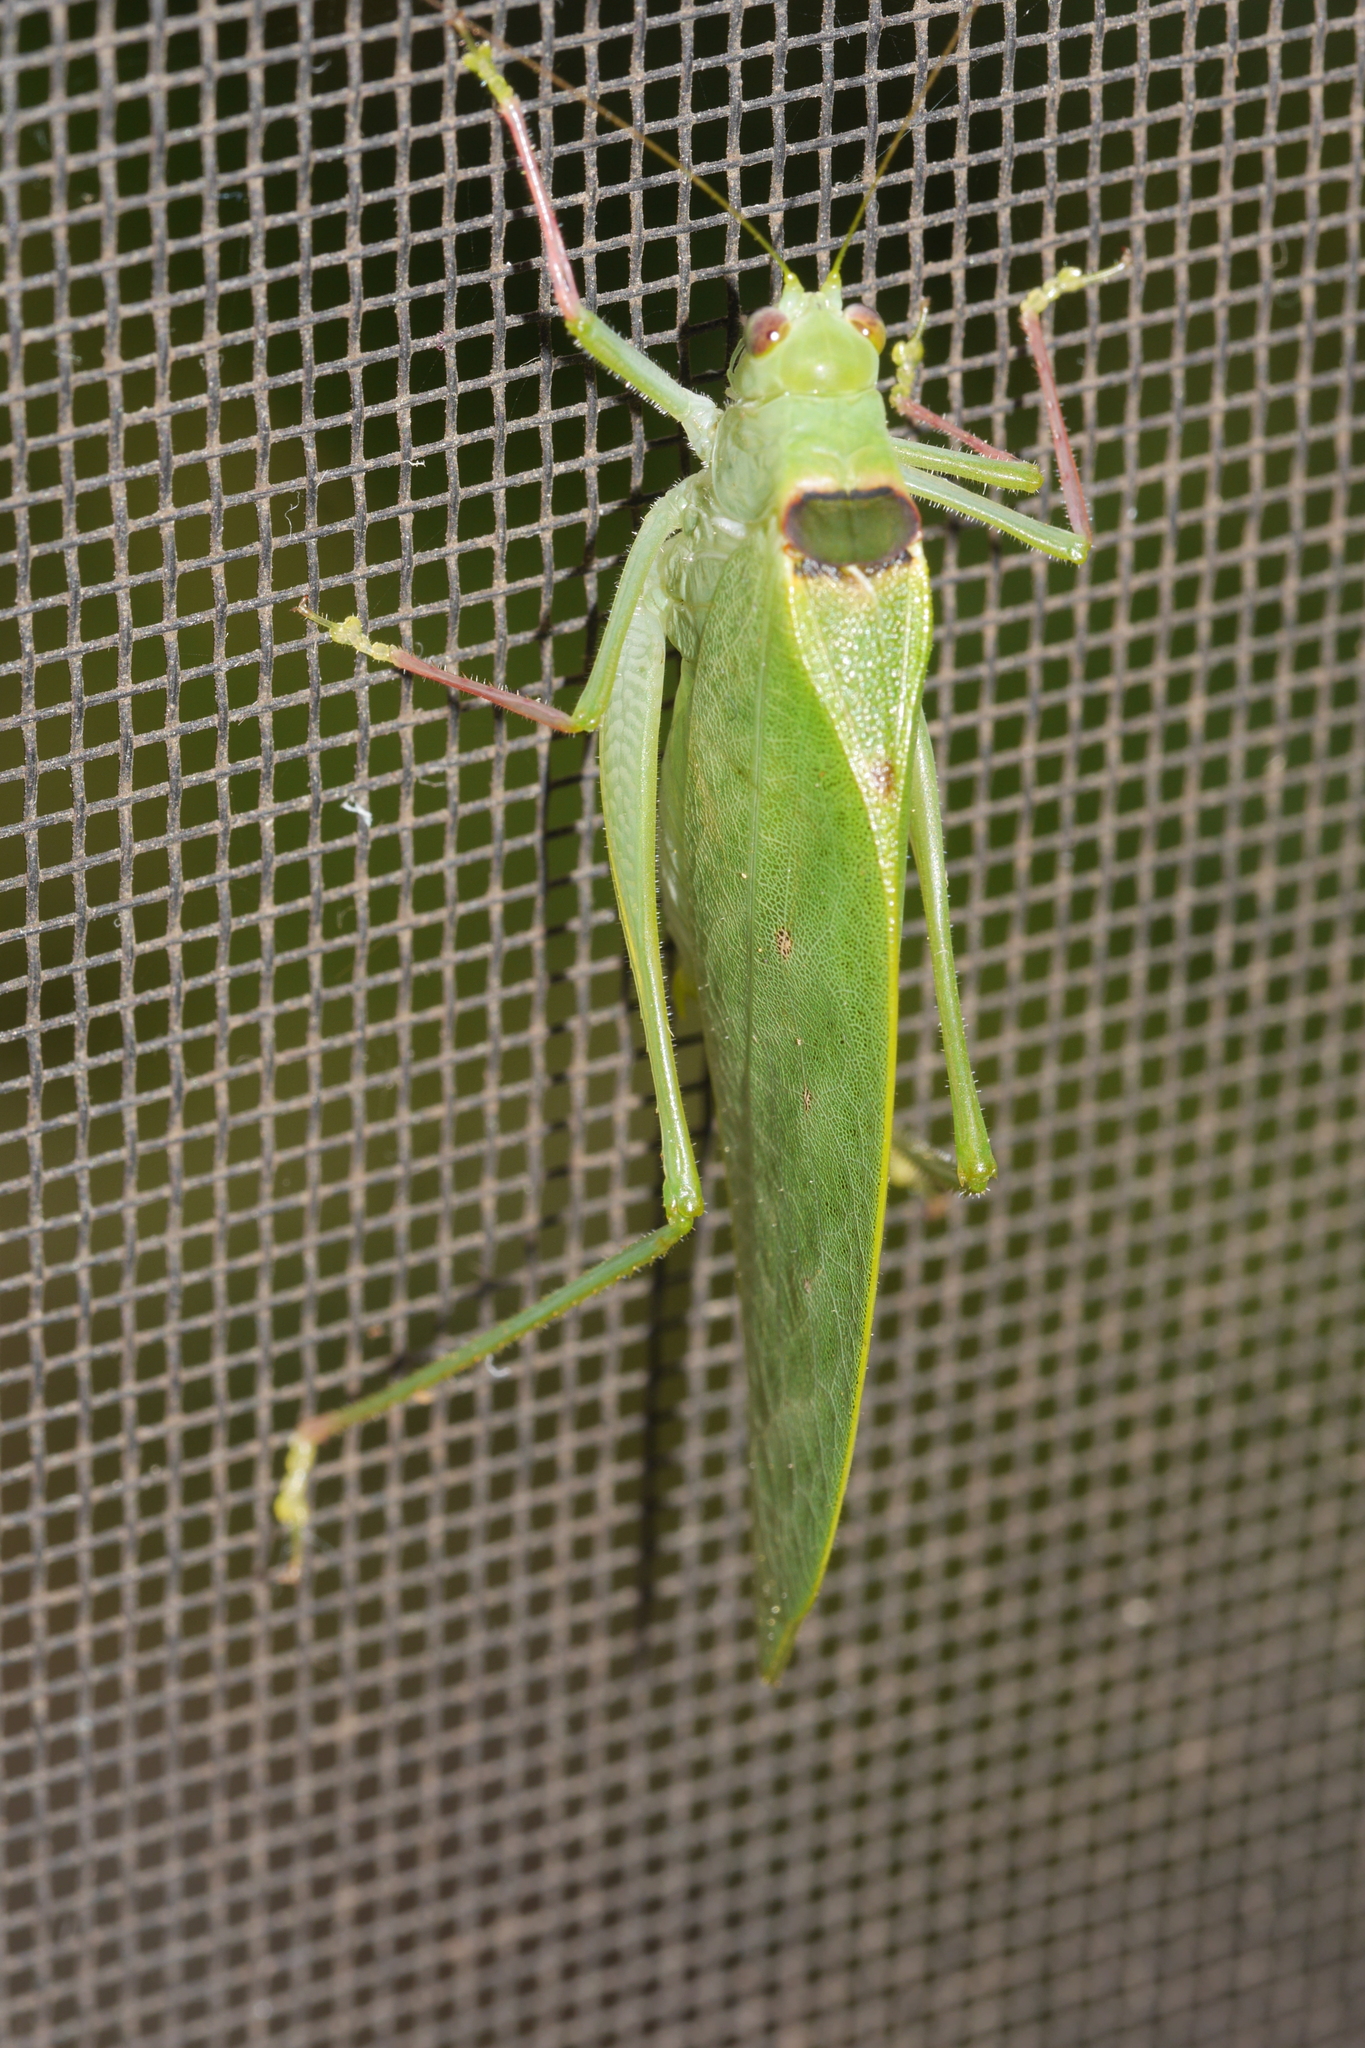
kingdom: Animalia
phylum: Arthropoda
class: Insecta
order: Orthoptera
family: Tettigoniidae
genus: Phylloptera
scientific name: Phylloptera dimidiata
